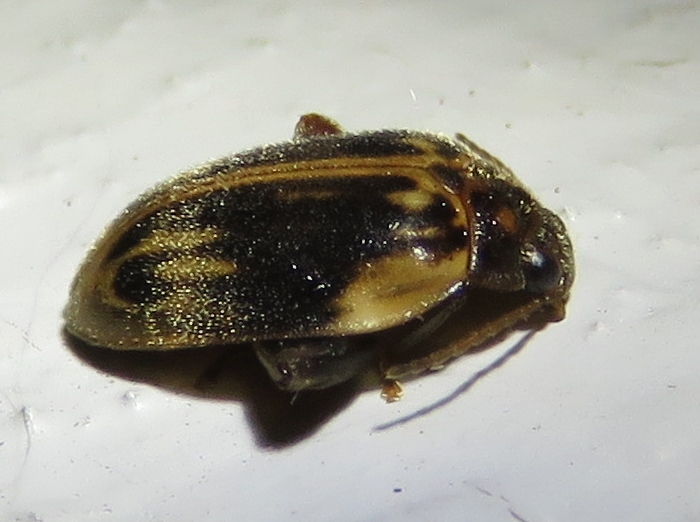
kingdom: Animalia
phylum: Arthropoda
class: Insecta
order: Coleoptera
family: Scirtidae
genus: Ora
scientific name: Ora texana
